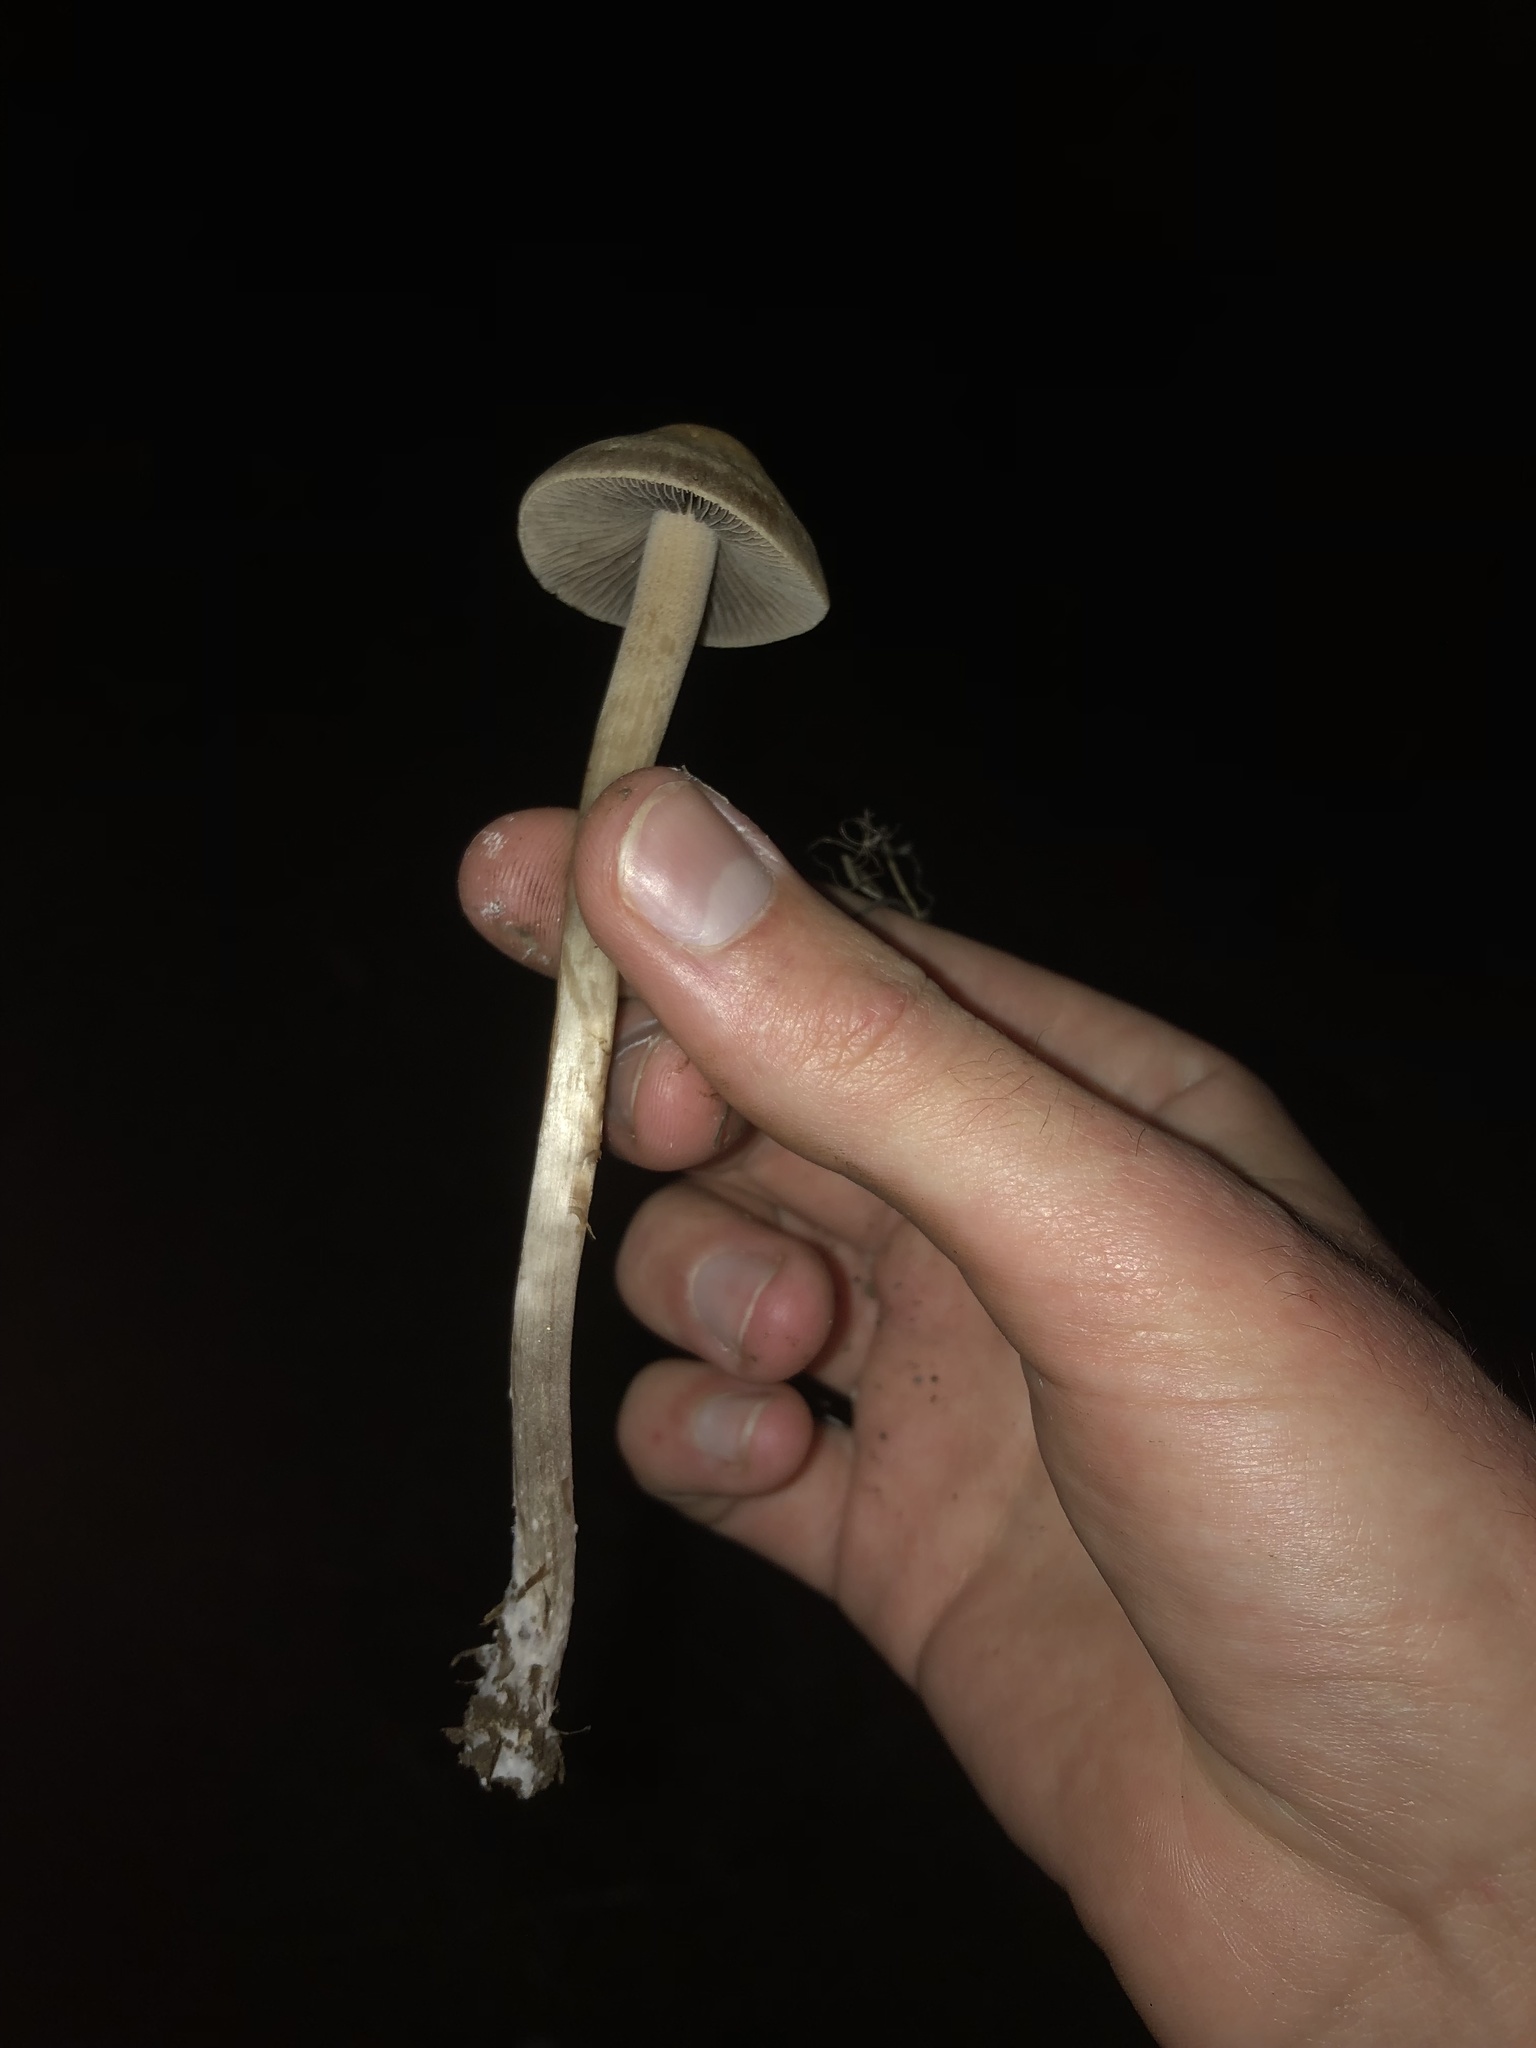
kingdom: Fungi
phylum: Basidiomycota
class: Agaricomycetes
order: Agaricales
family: Bolbitiaceae
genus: Panaeolus
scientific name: Panaeolus cinctulus
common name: Banded mottlegill
